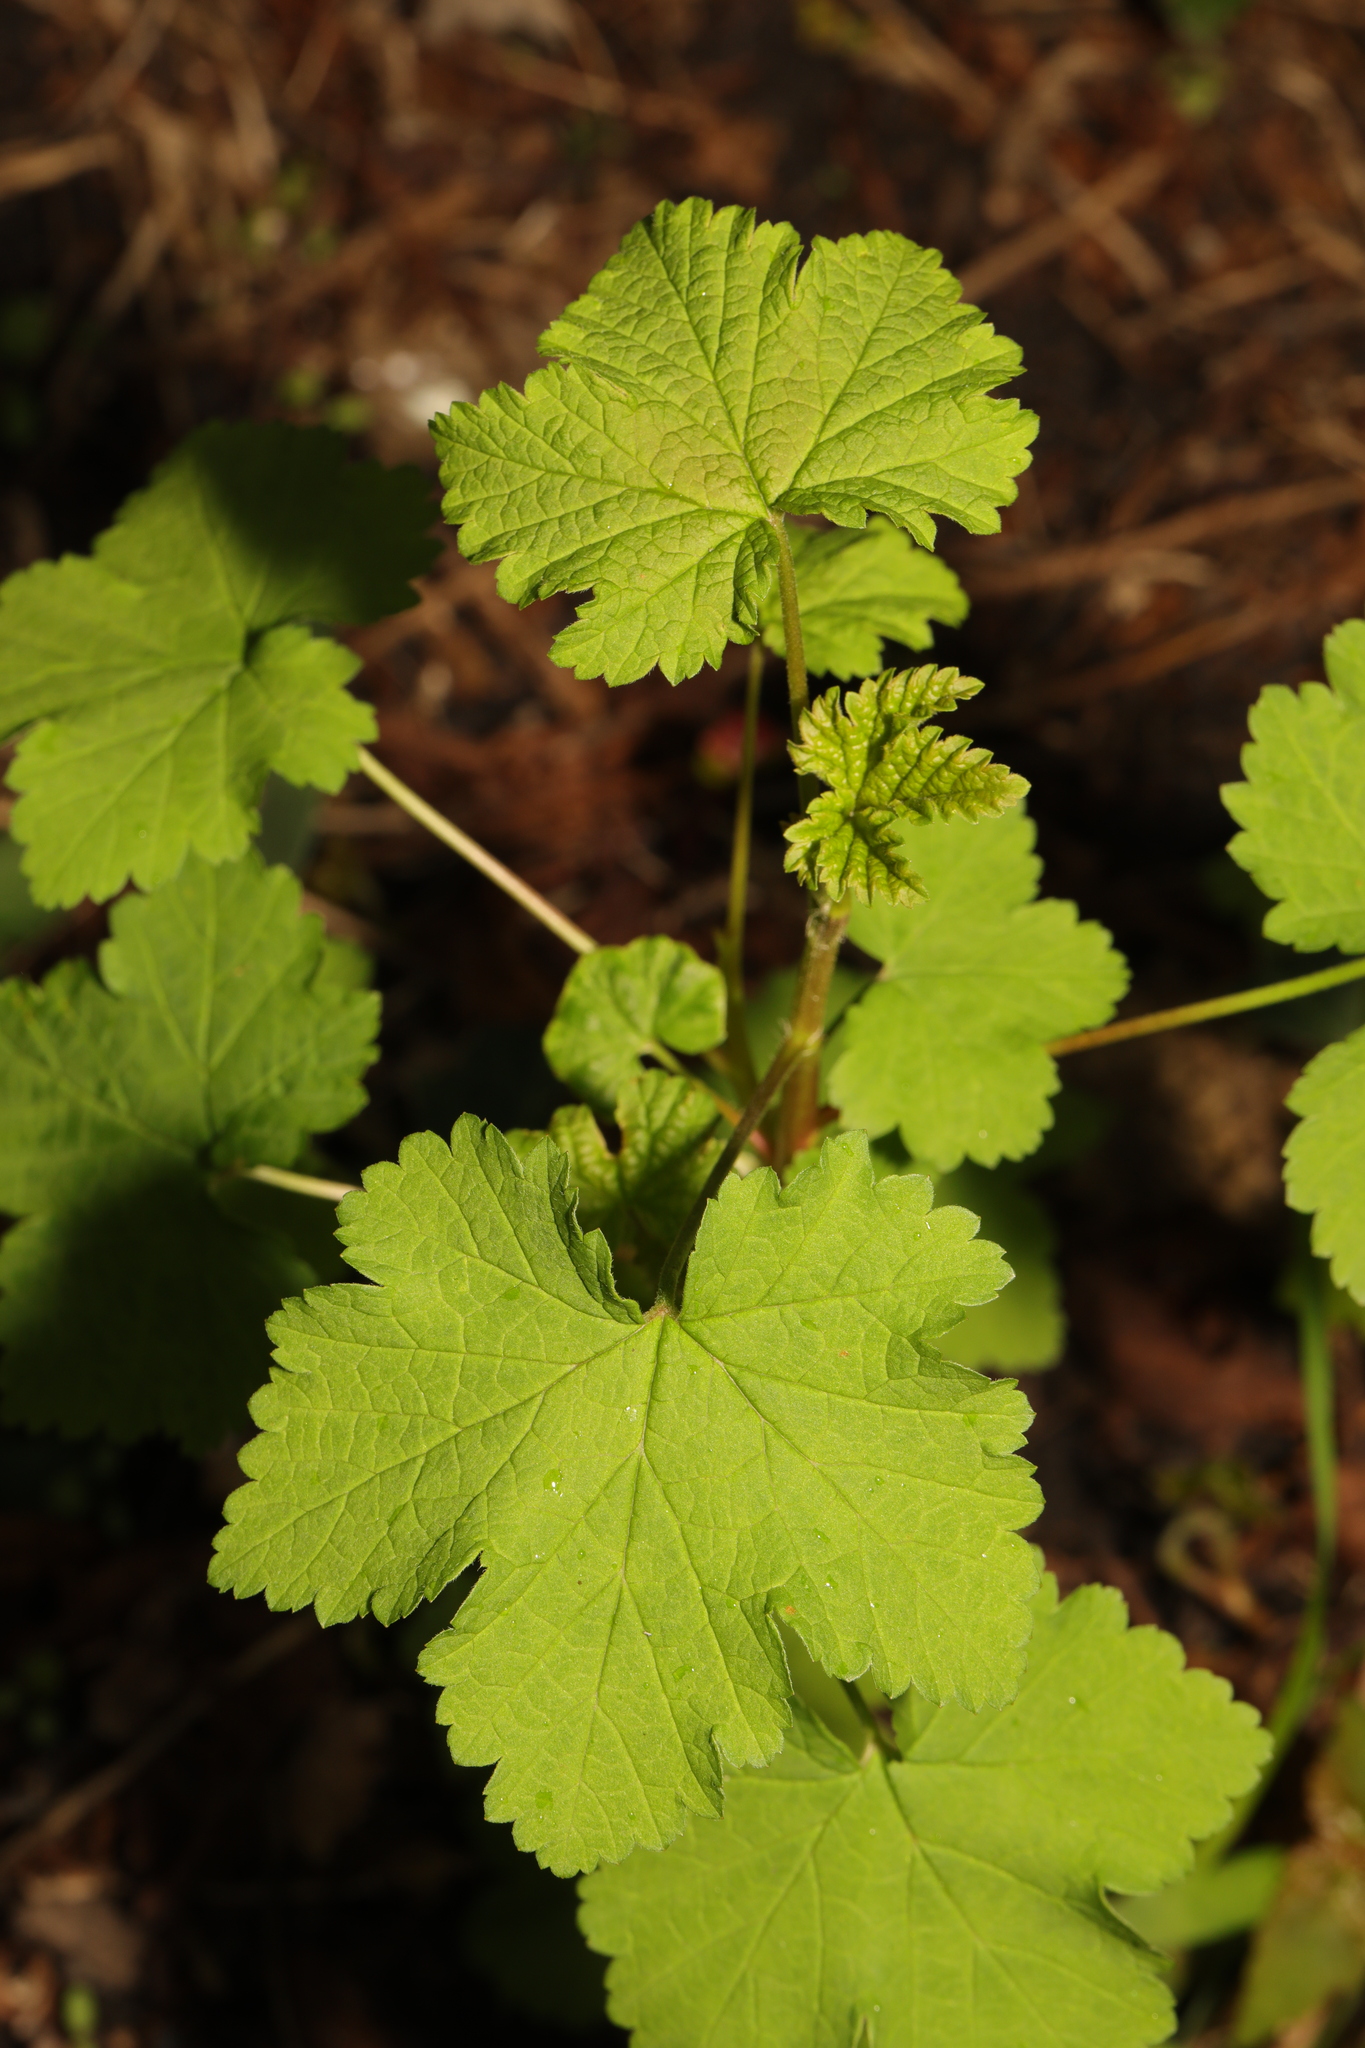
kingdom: Plantae
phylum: Tracheophyta
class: Magnoliopsida
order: Saxifragales
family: Grossulariaceae
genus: Ribes
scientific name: Ribes rubrum
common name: Red currant
